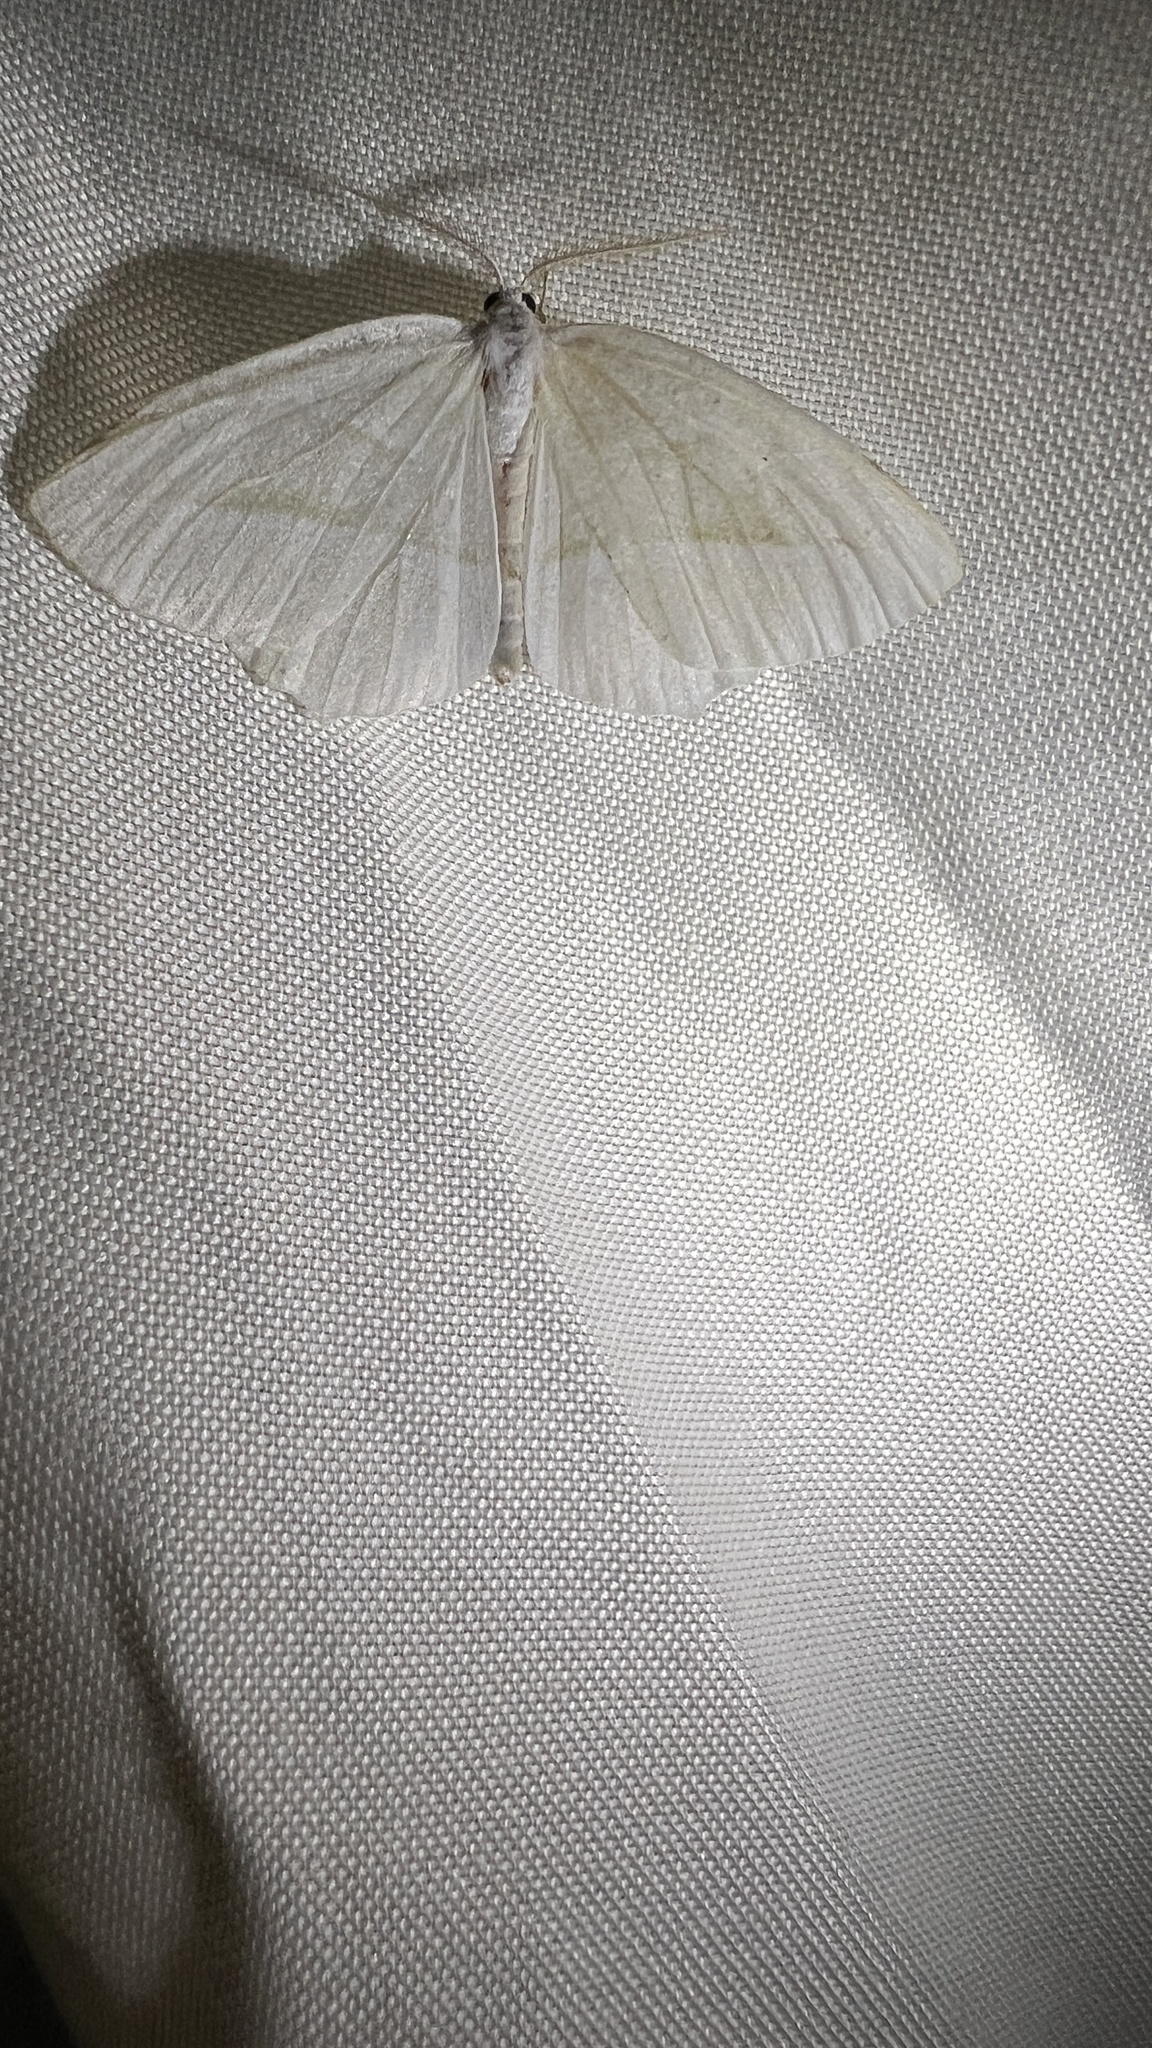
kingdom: Animalia
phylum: Arthropoda
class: Insecta
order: Lepidoptera
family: Geometridae
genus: Campaea
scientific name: Campaea perlata
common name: Fringed looper
